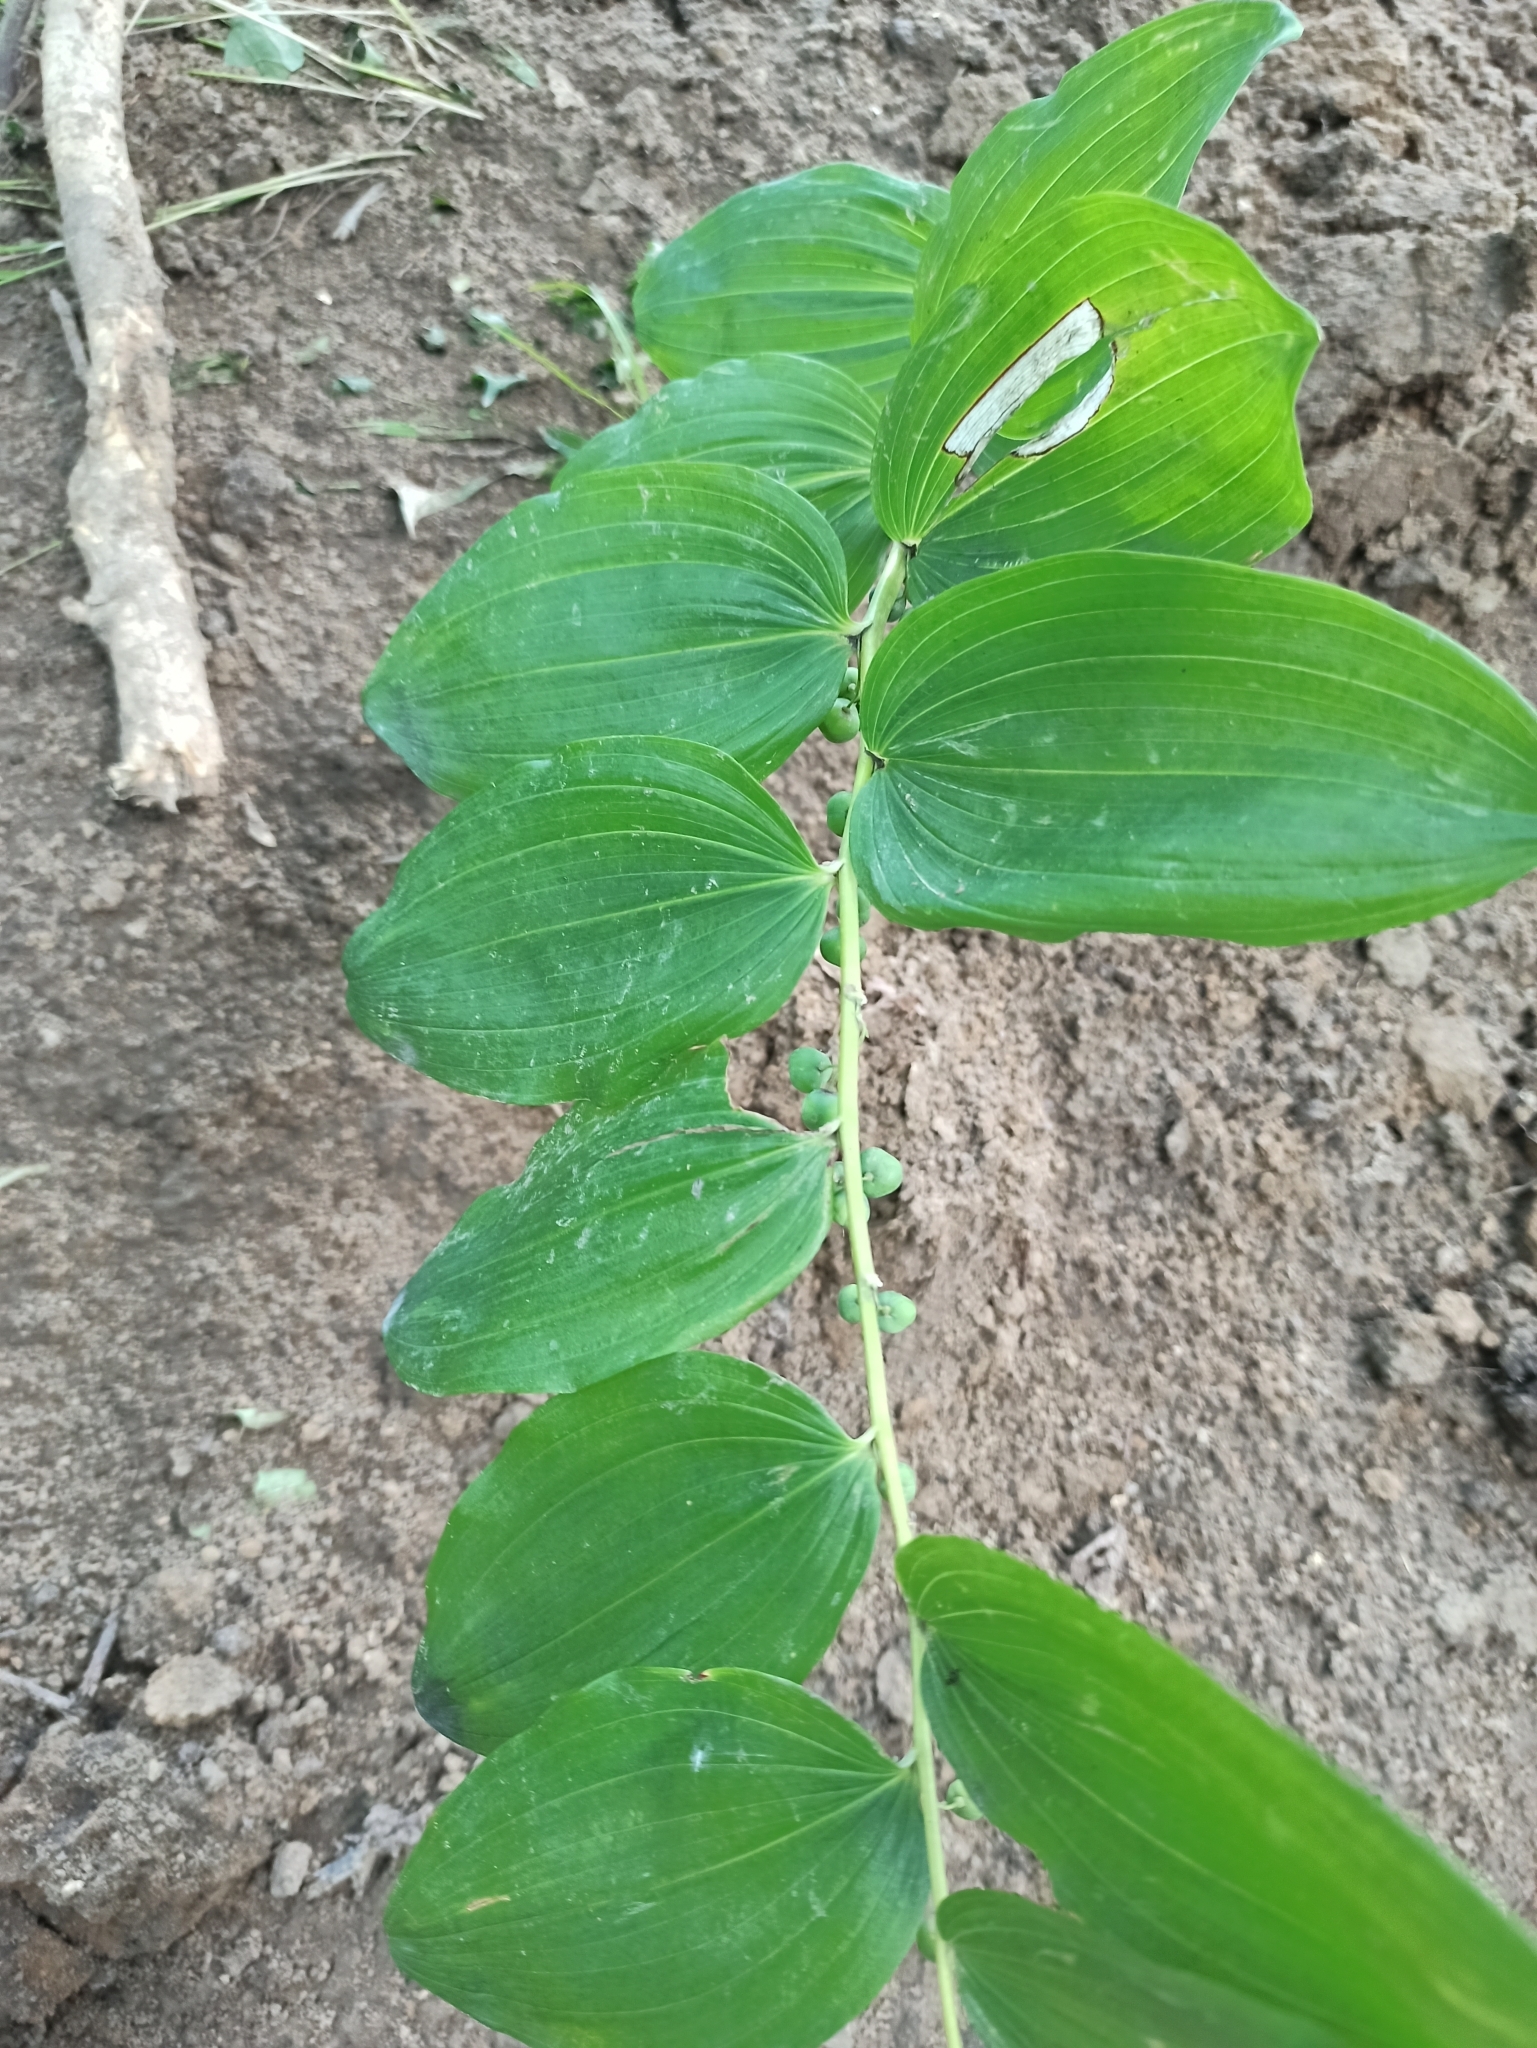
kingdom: Plantae
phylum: Tracheophyta
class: Liliopsida
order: Asparagales
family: Asparagaceae
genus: Polygonatum
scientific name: Polygonatum multiflorum
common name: Solomon's-seal
